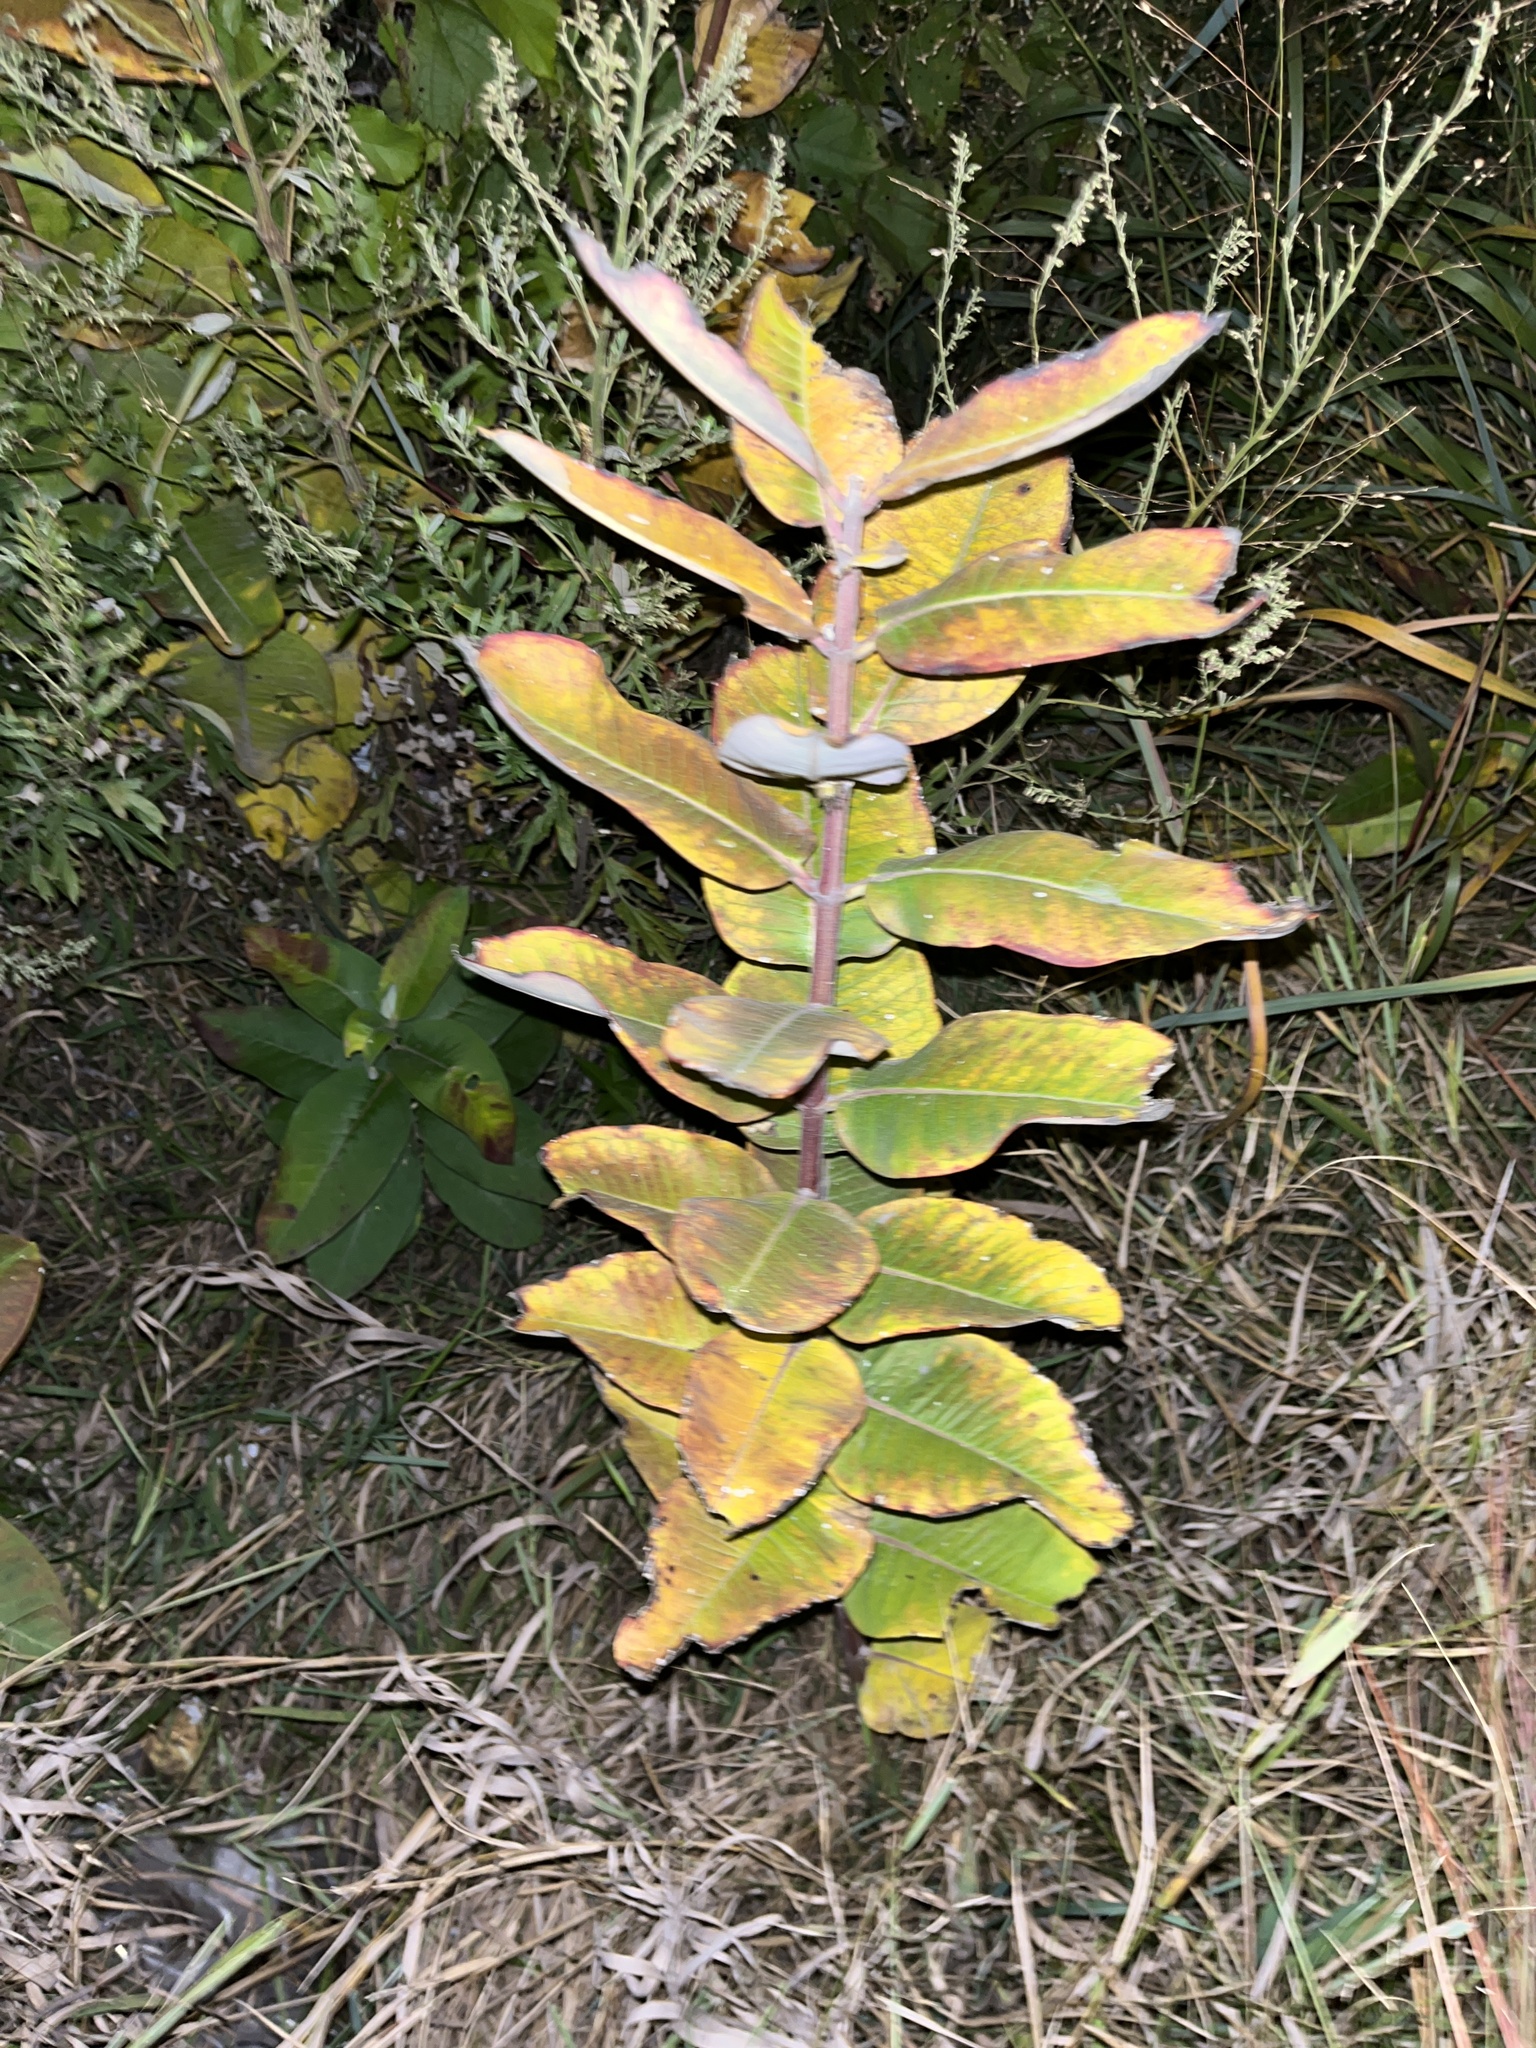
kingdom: Plantae
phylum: Tracheophyta
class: Magnoliopsida
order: Gentianales
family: Apocynaceae
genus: Asclepias
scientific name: Asclepias syriaca
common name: Common milkweed
